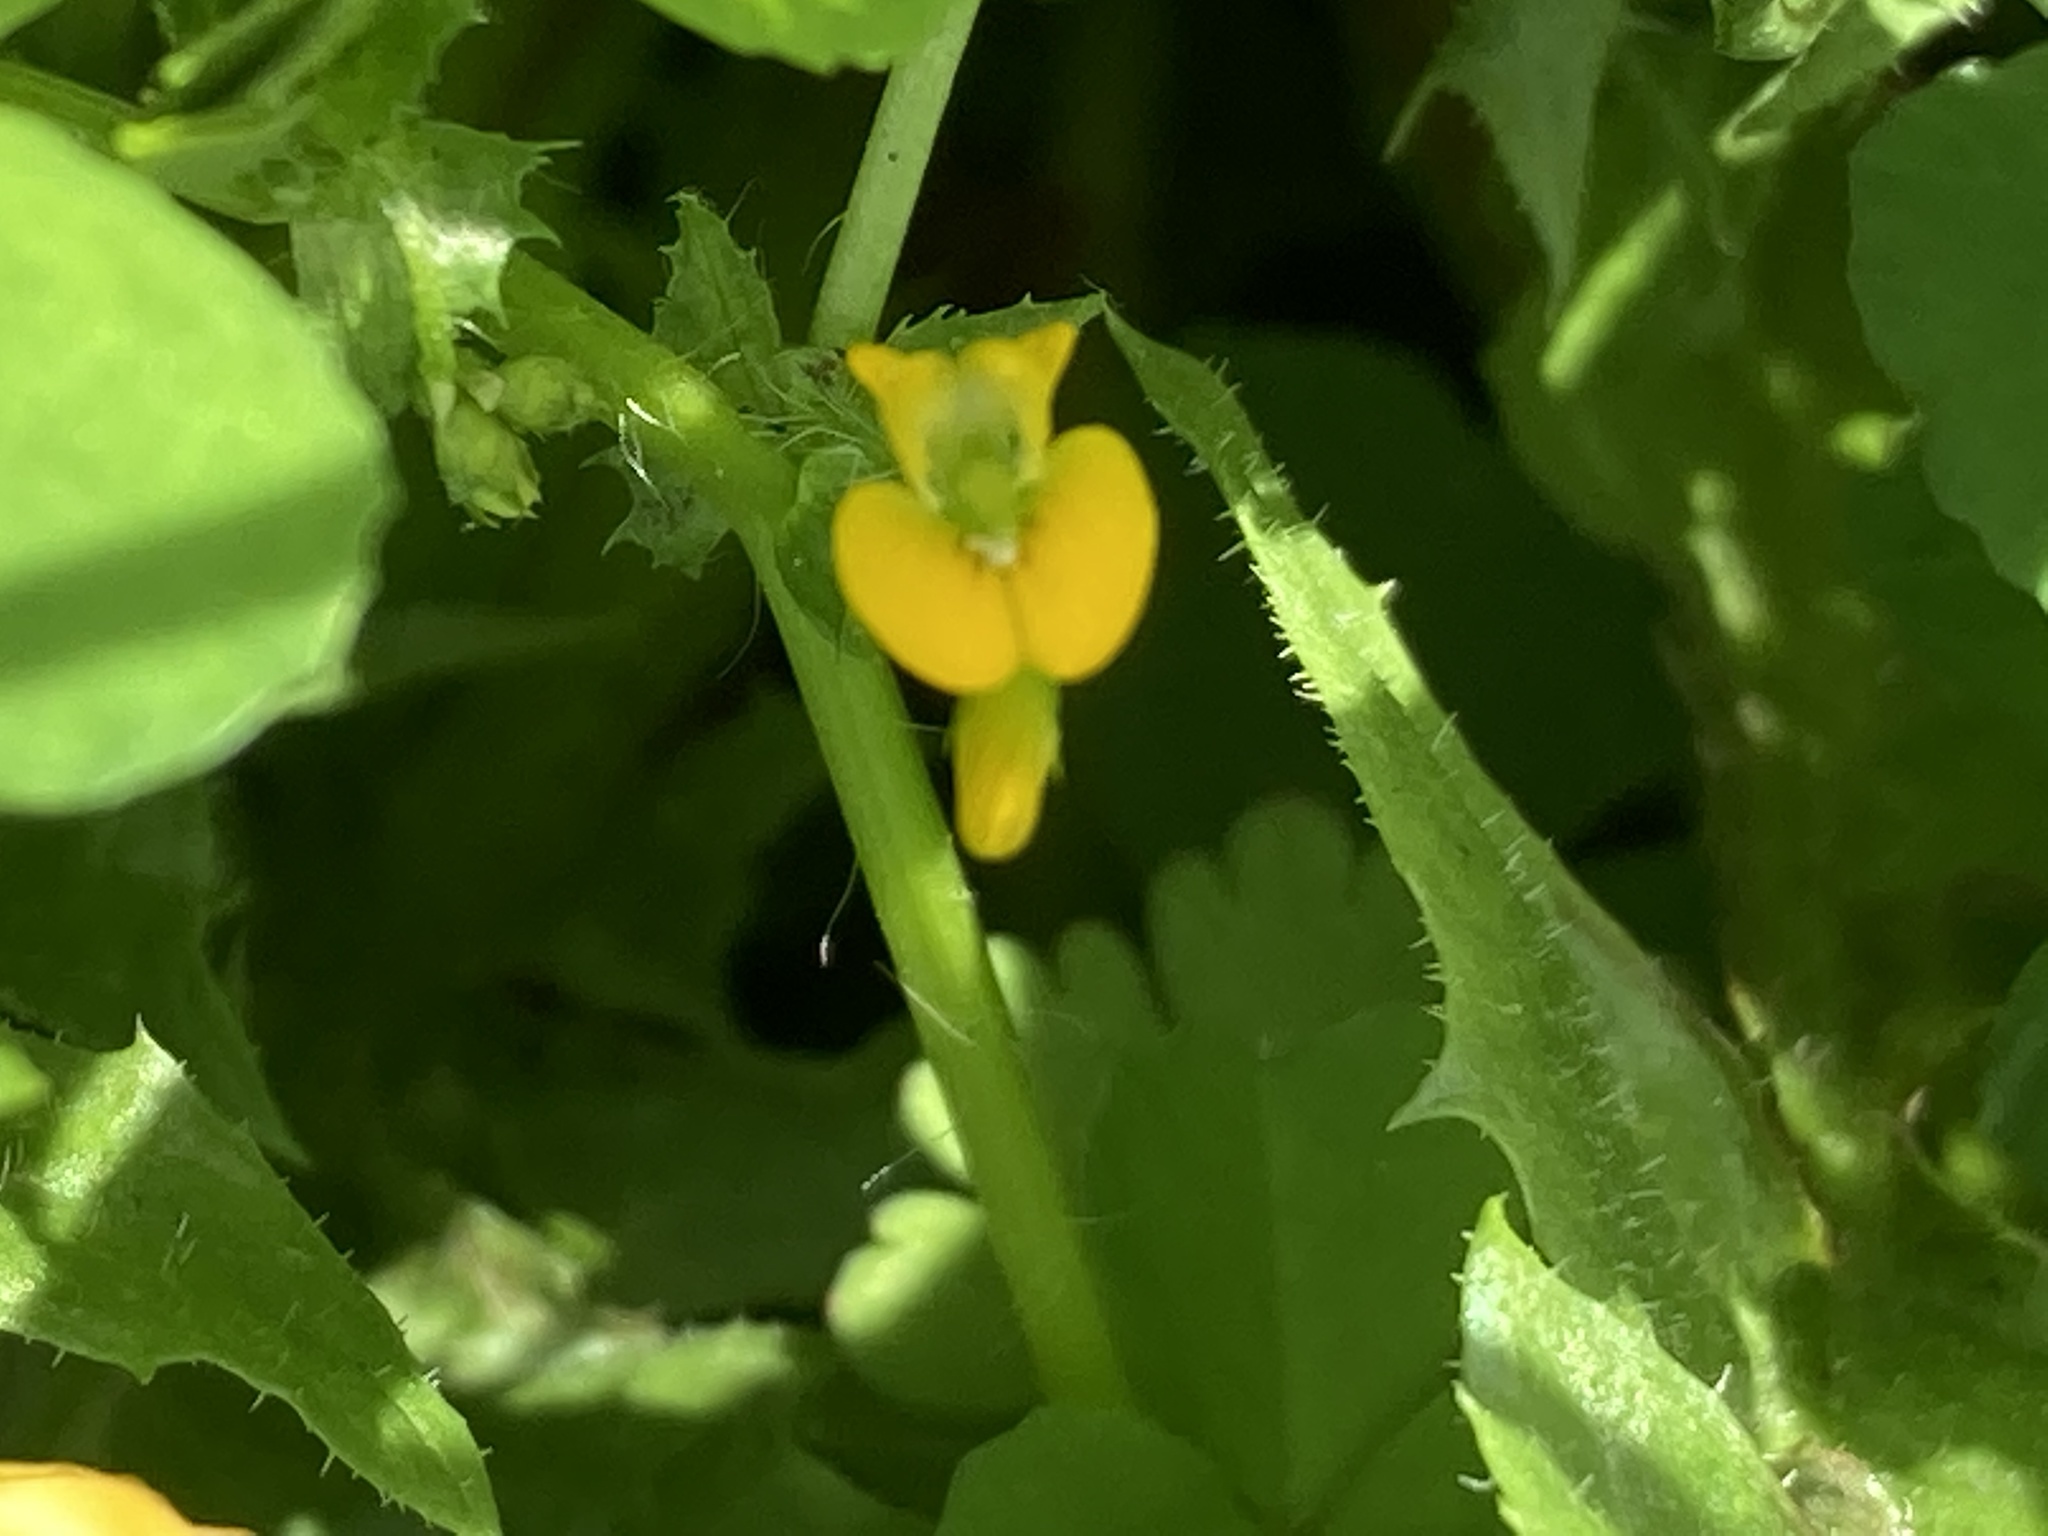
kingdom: Plantae
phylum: Tracheophyta
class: Magnoliopsida
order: Fabales
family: Fabaceae
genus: Medicago
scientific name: Medicago arabica
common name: Spotted medick
